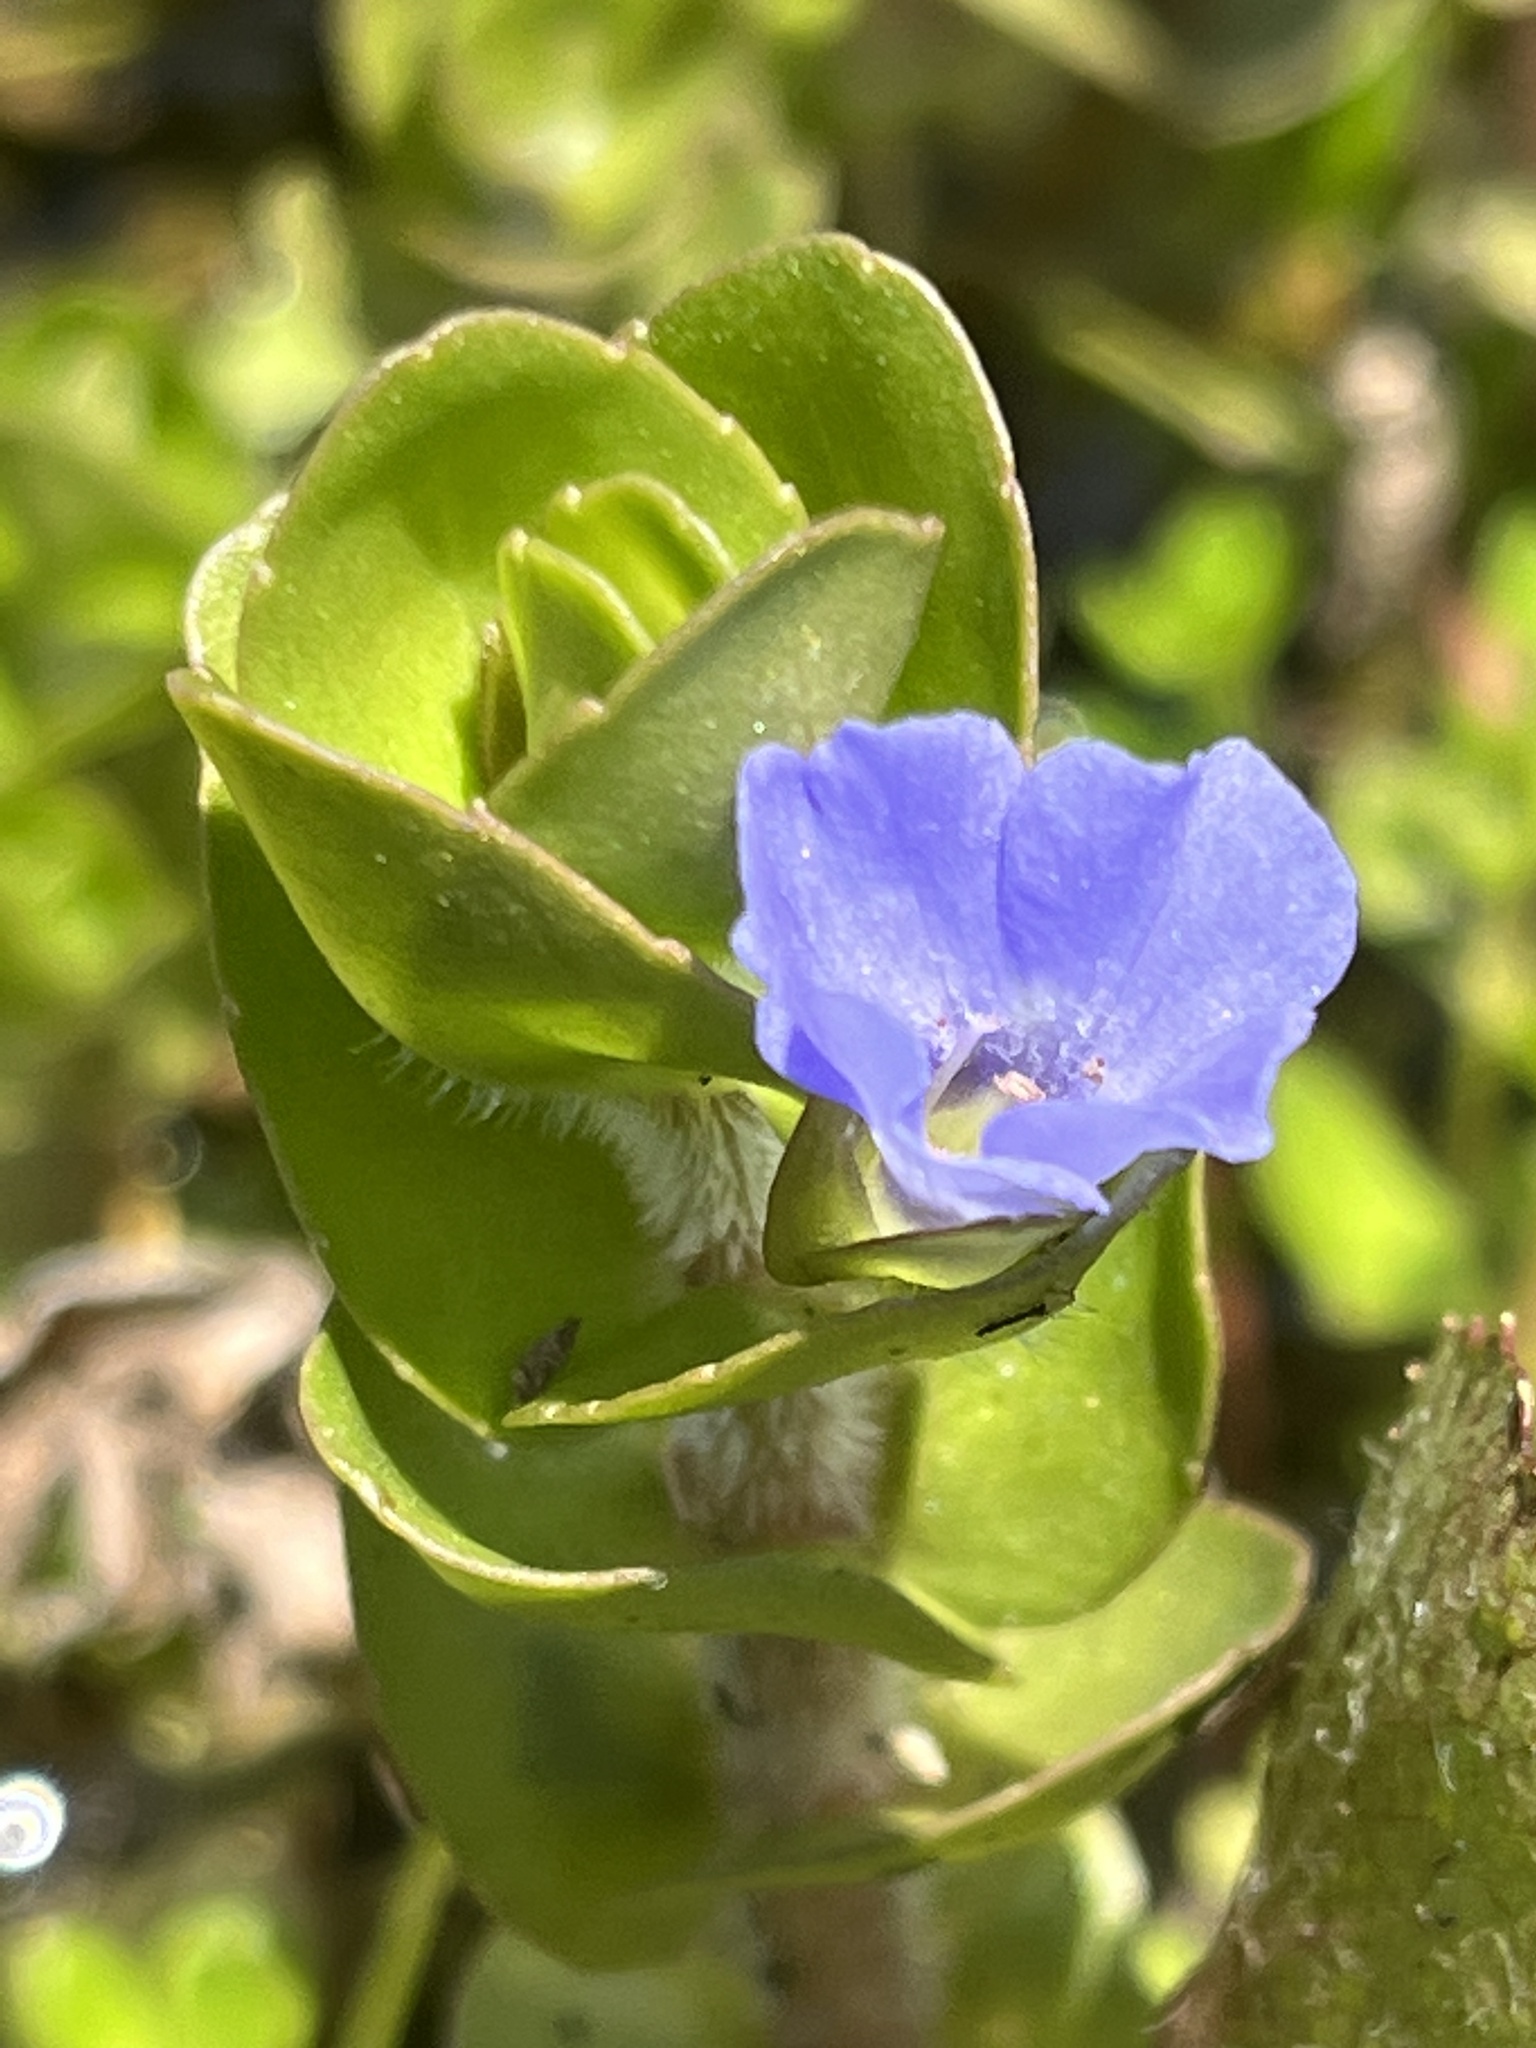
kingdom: Plantae
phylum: Tracheophyta
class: Magnoliopsida
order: Lamiales
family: Plantaginaceae
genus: Bacopa
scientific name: Bacopa caroliniana
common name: Lemon bacopa
